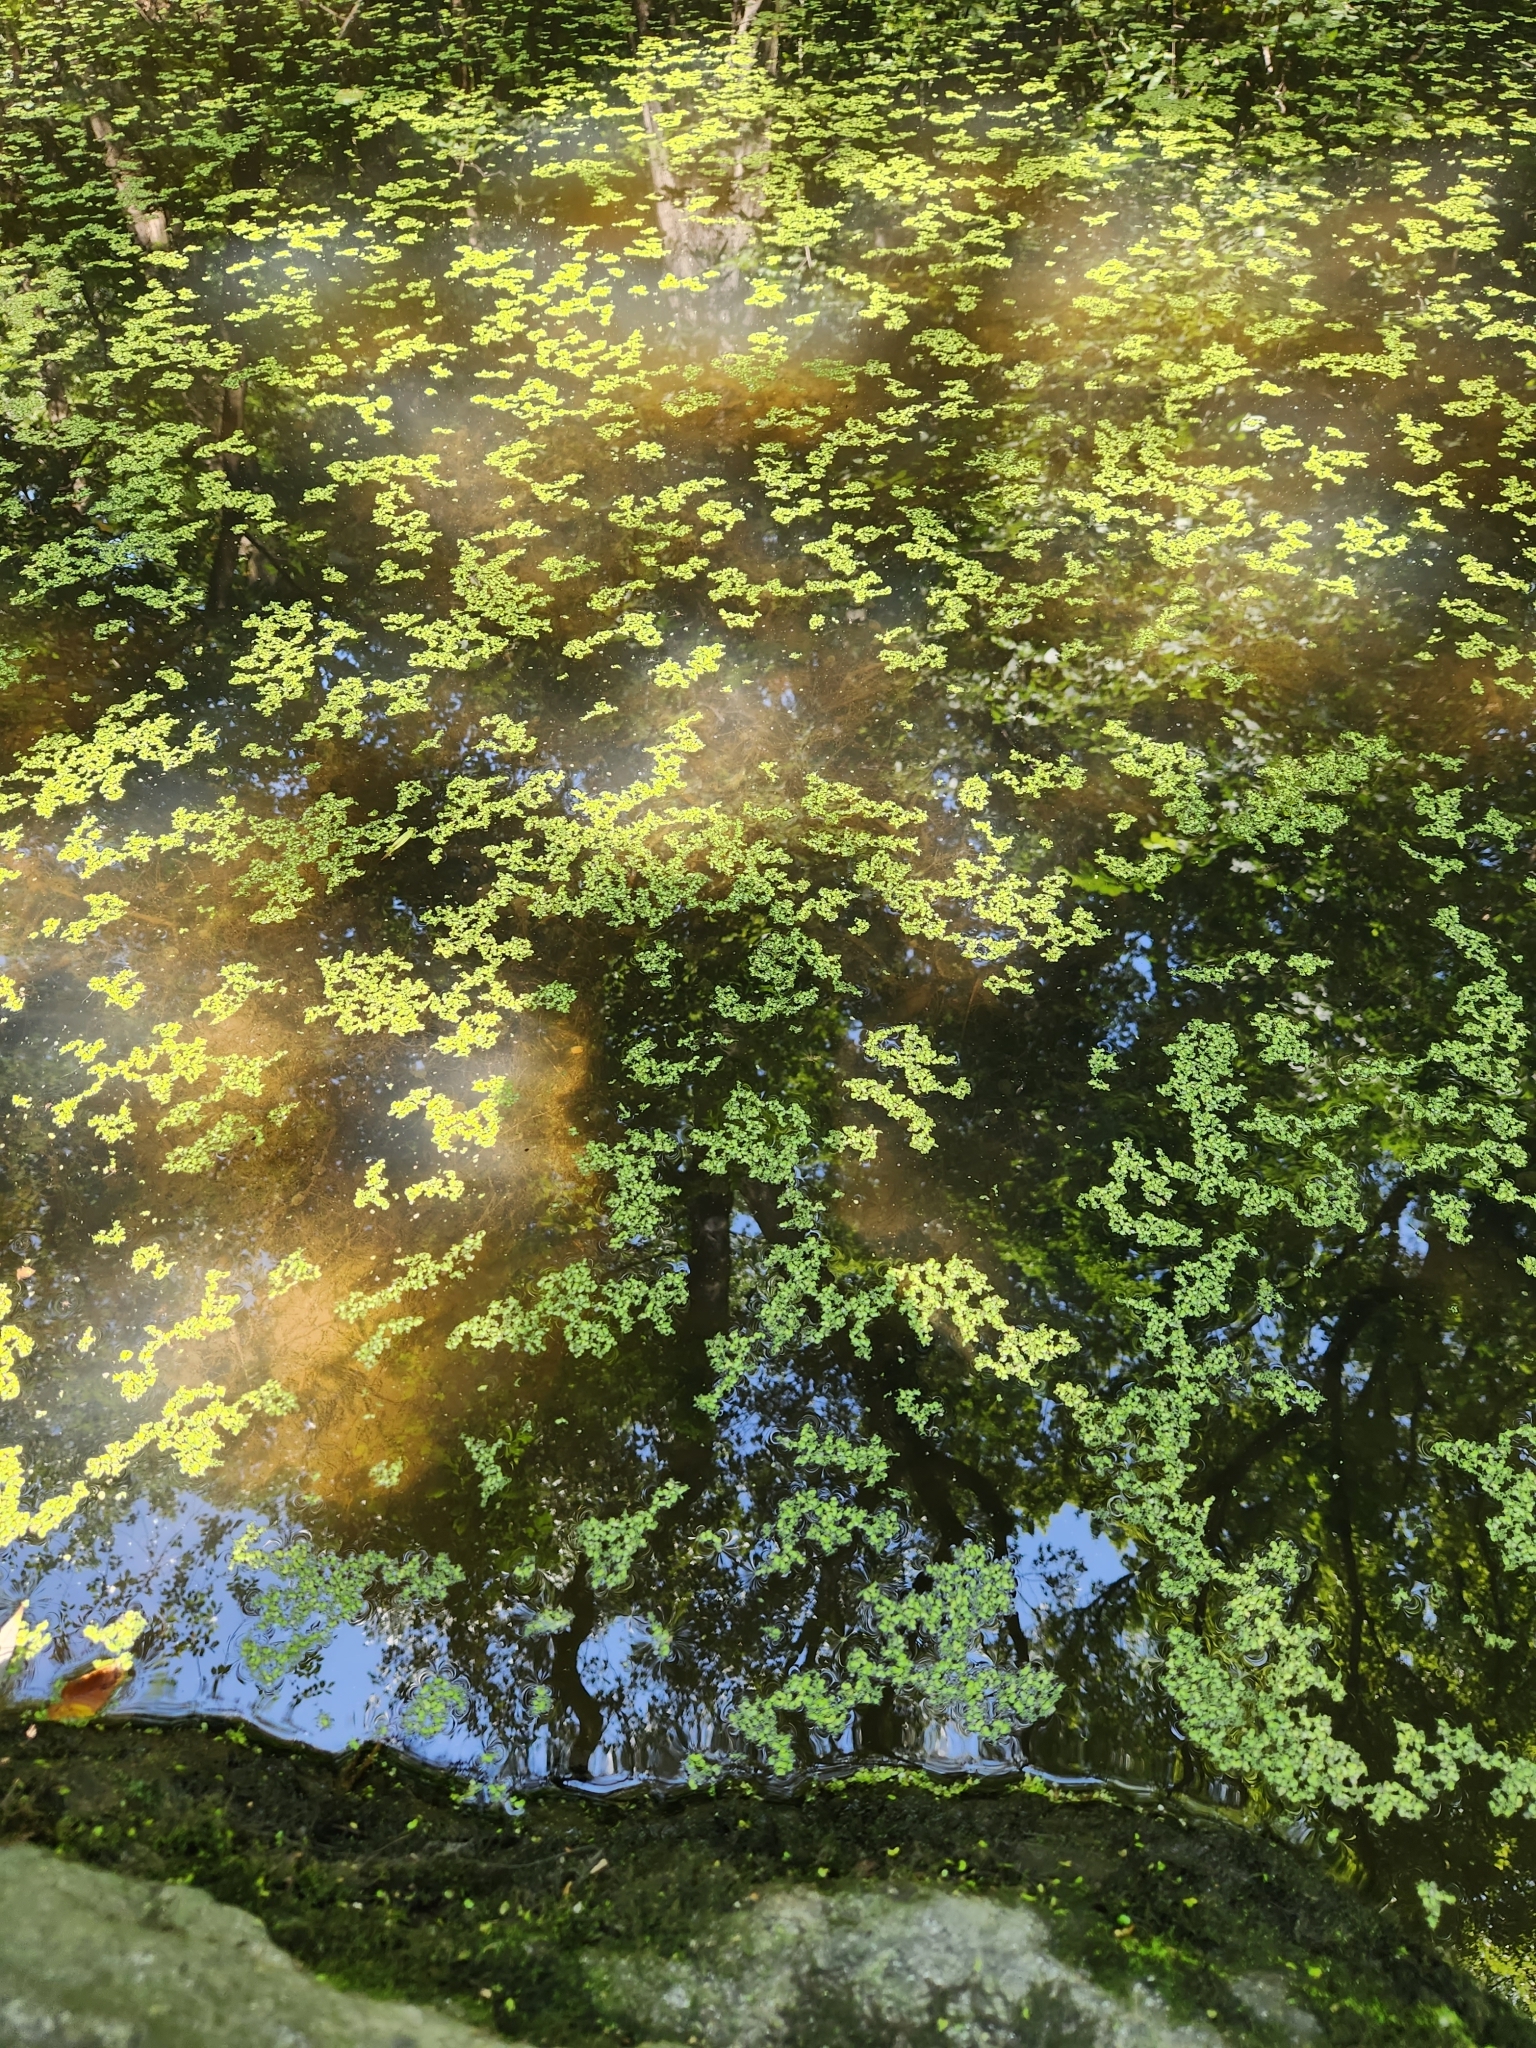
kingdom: Plantae
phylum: Tracheophyta
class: Liliopsida
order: Alismatales
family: Araceae
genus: Lemna
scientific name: Lemna minor
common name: Common duckweed
